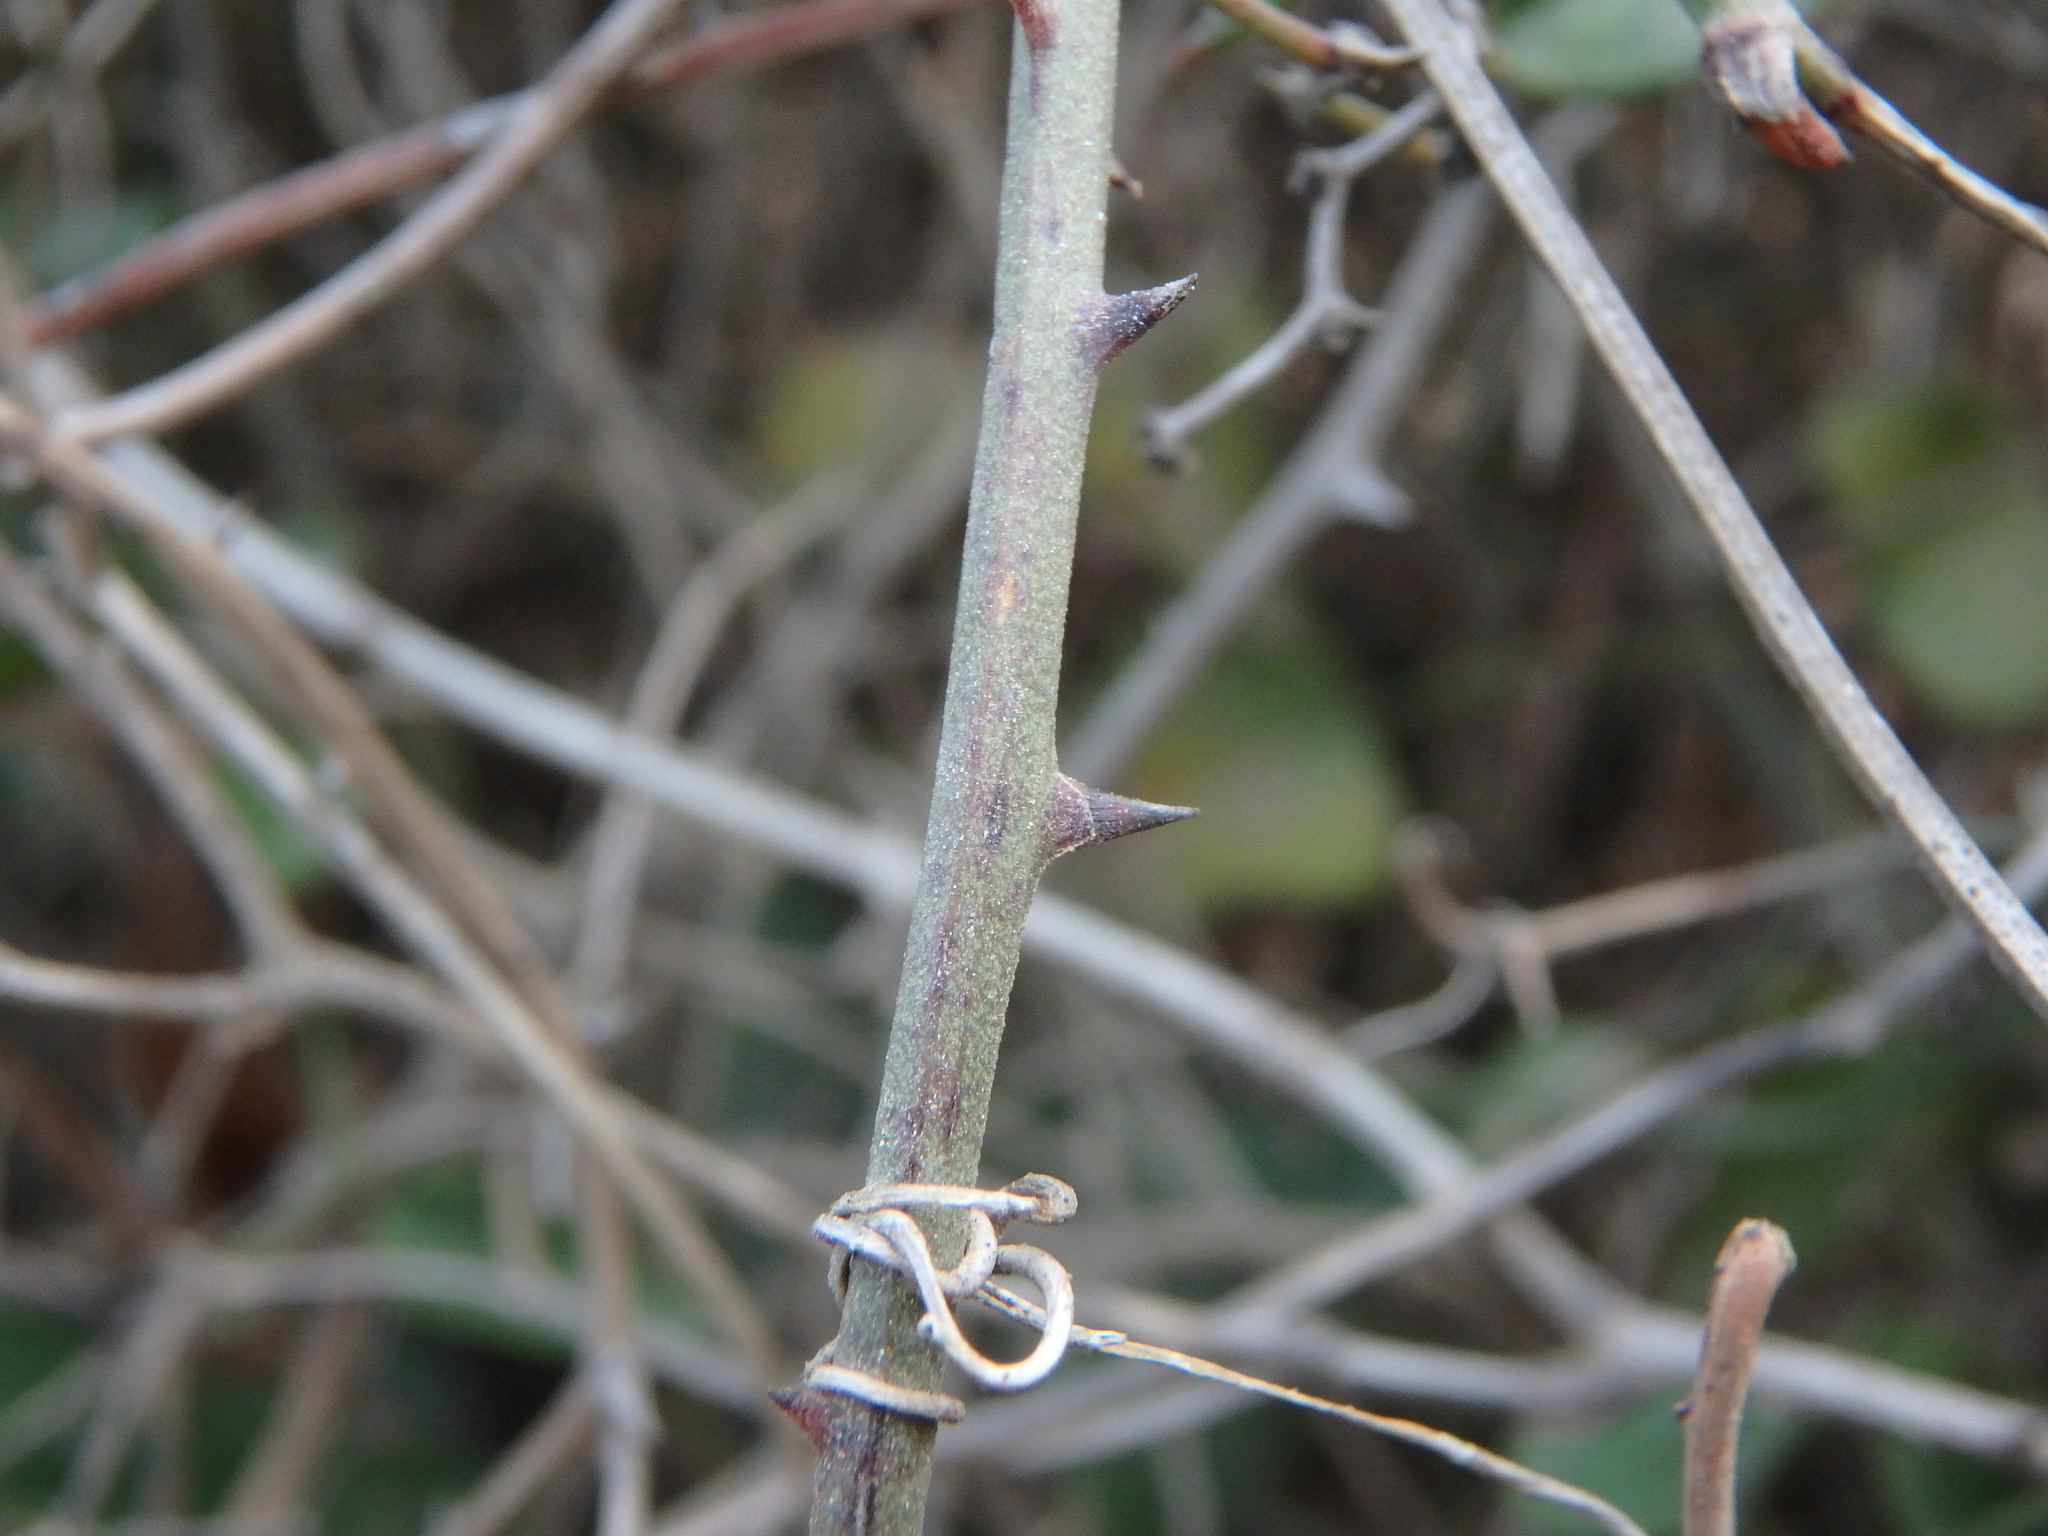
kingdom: Plantae
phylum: Tracheophyta
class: Liliopsida
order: Liliales
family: Smilacaceae
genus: Smilax
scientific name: Smilax aspera
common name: Common smilax
